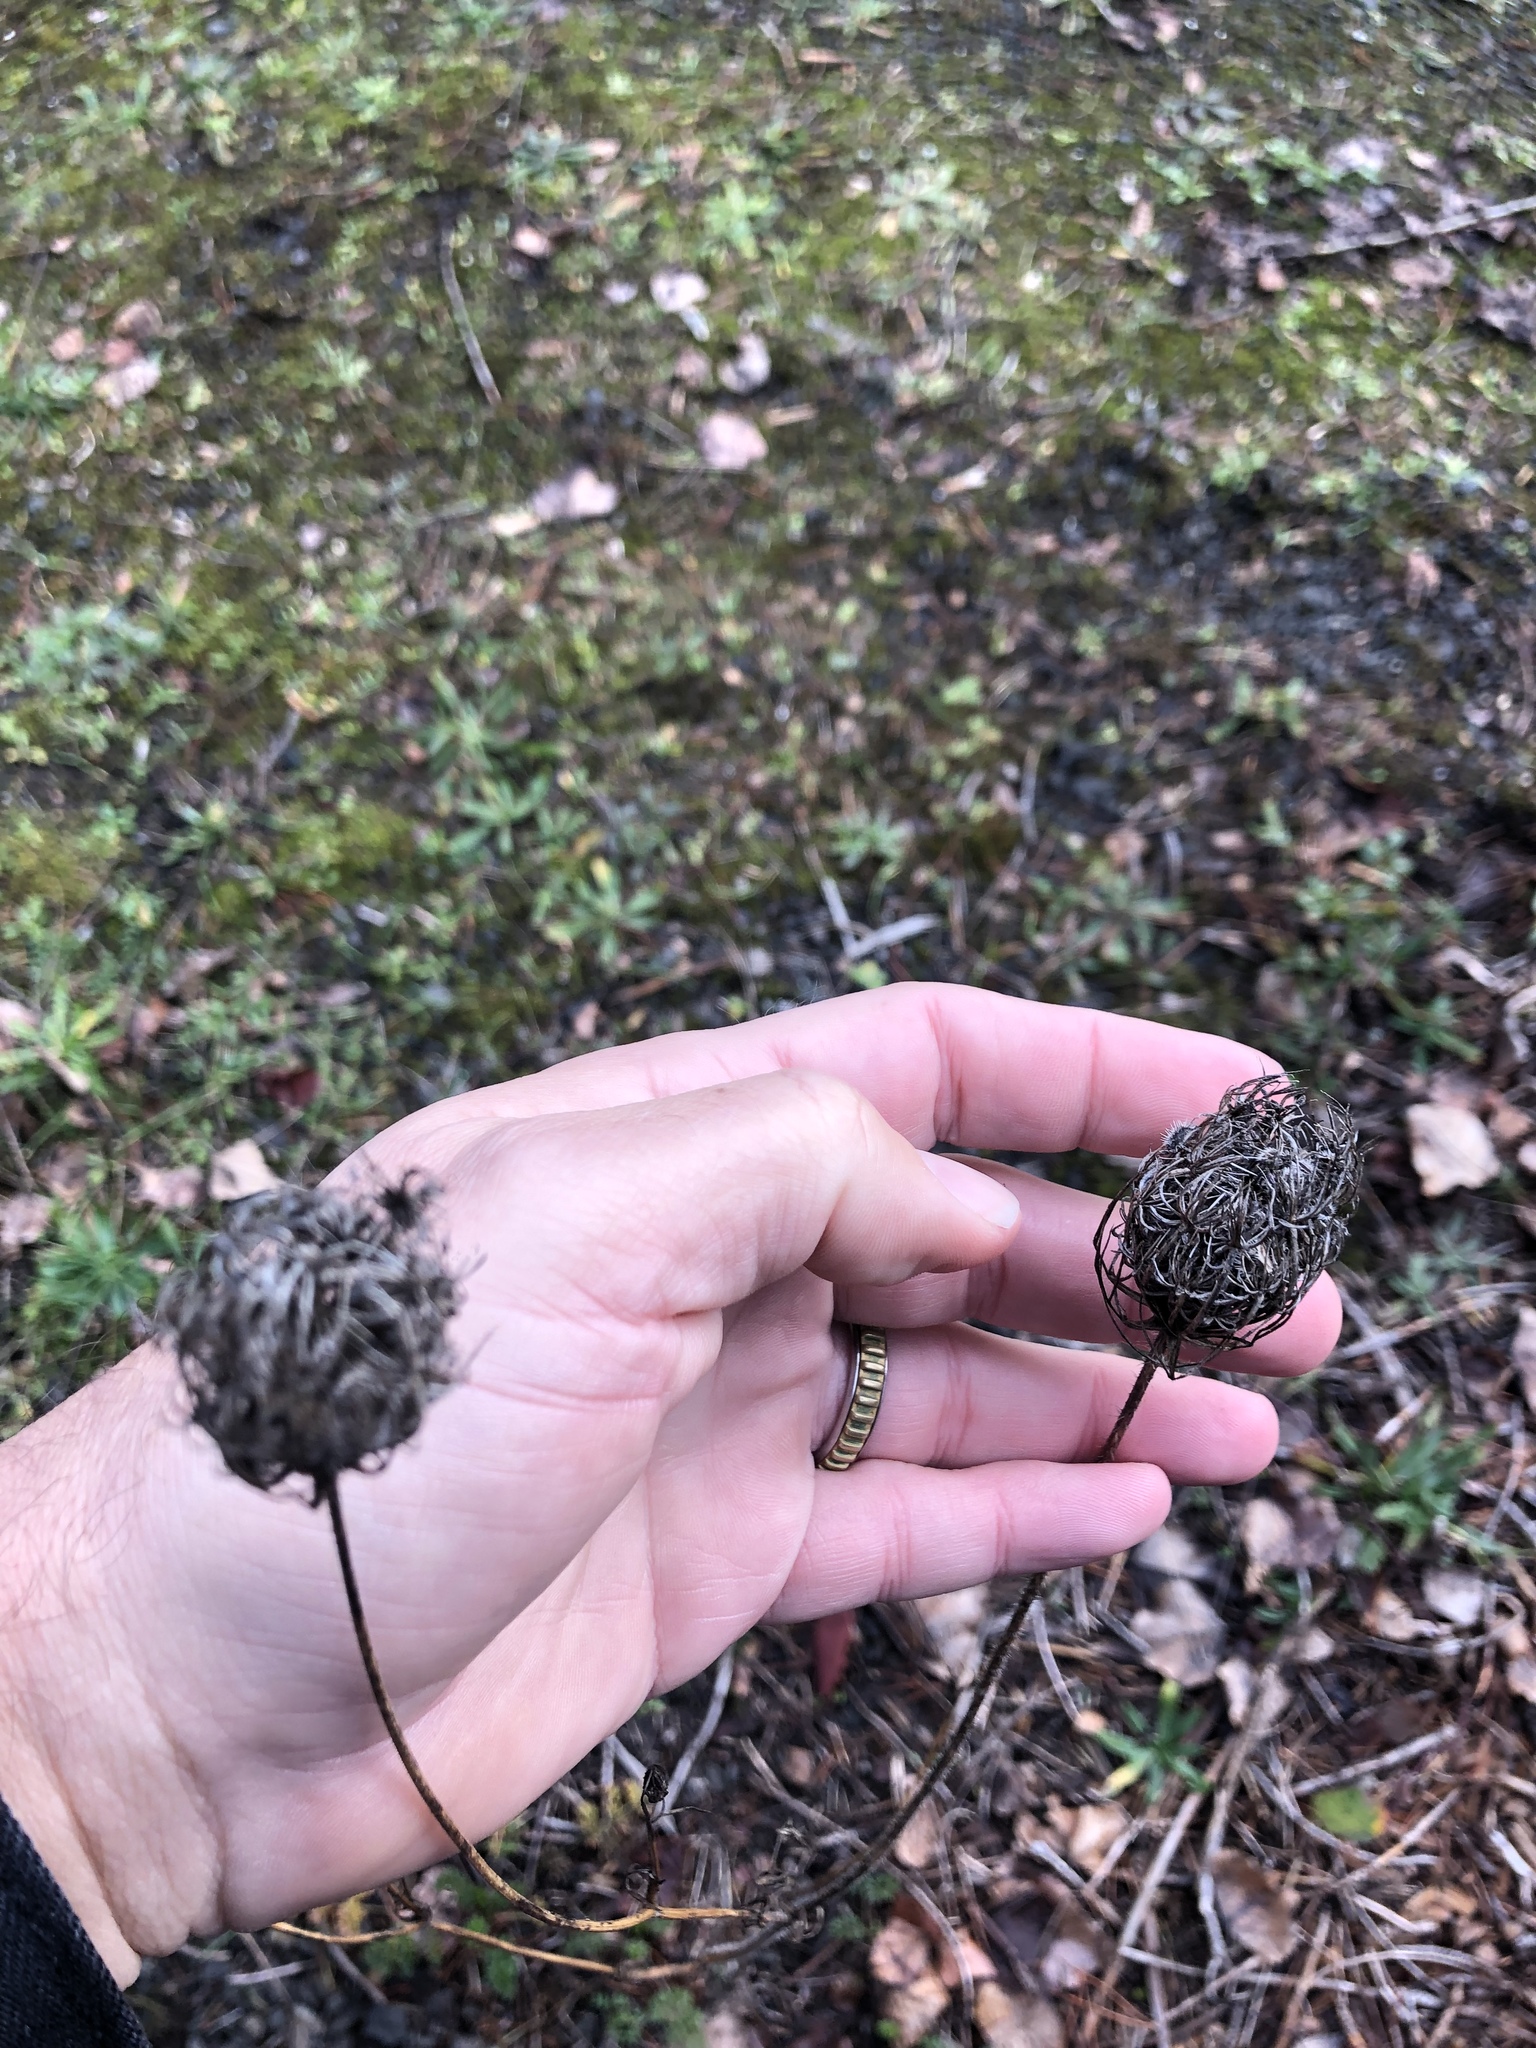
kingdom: Plantae
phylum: Tracheophyta
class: Magnoliopsida
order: Apiales
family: Apiaceae
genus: Daucus
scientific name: Daucus carota
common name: Wild carrot
